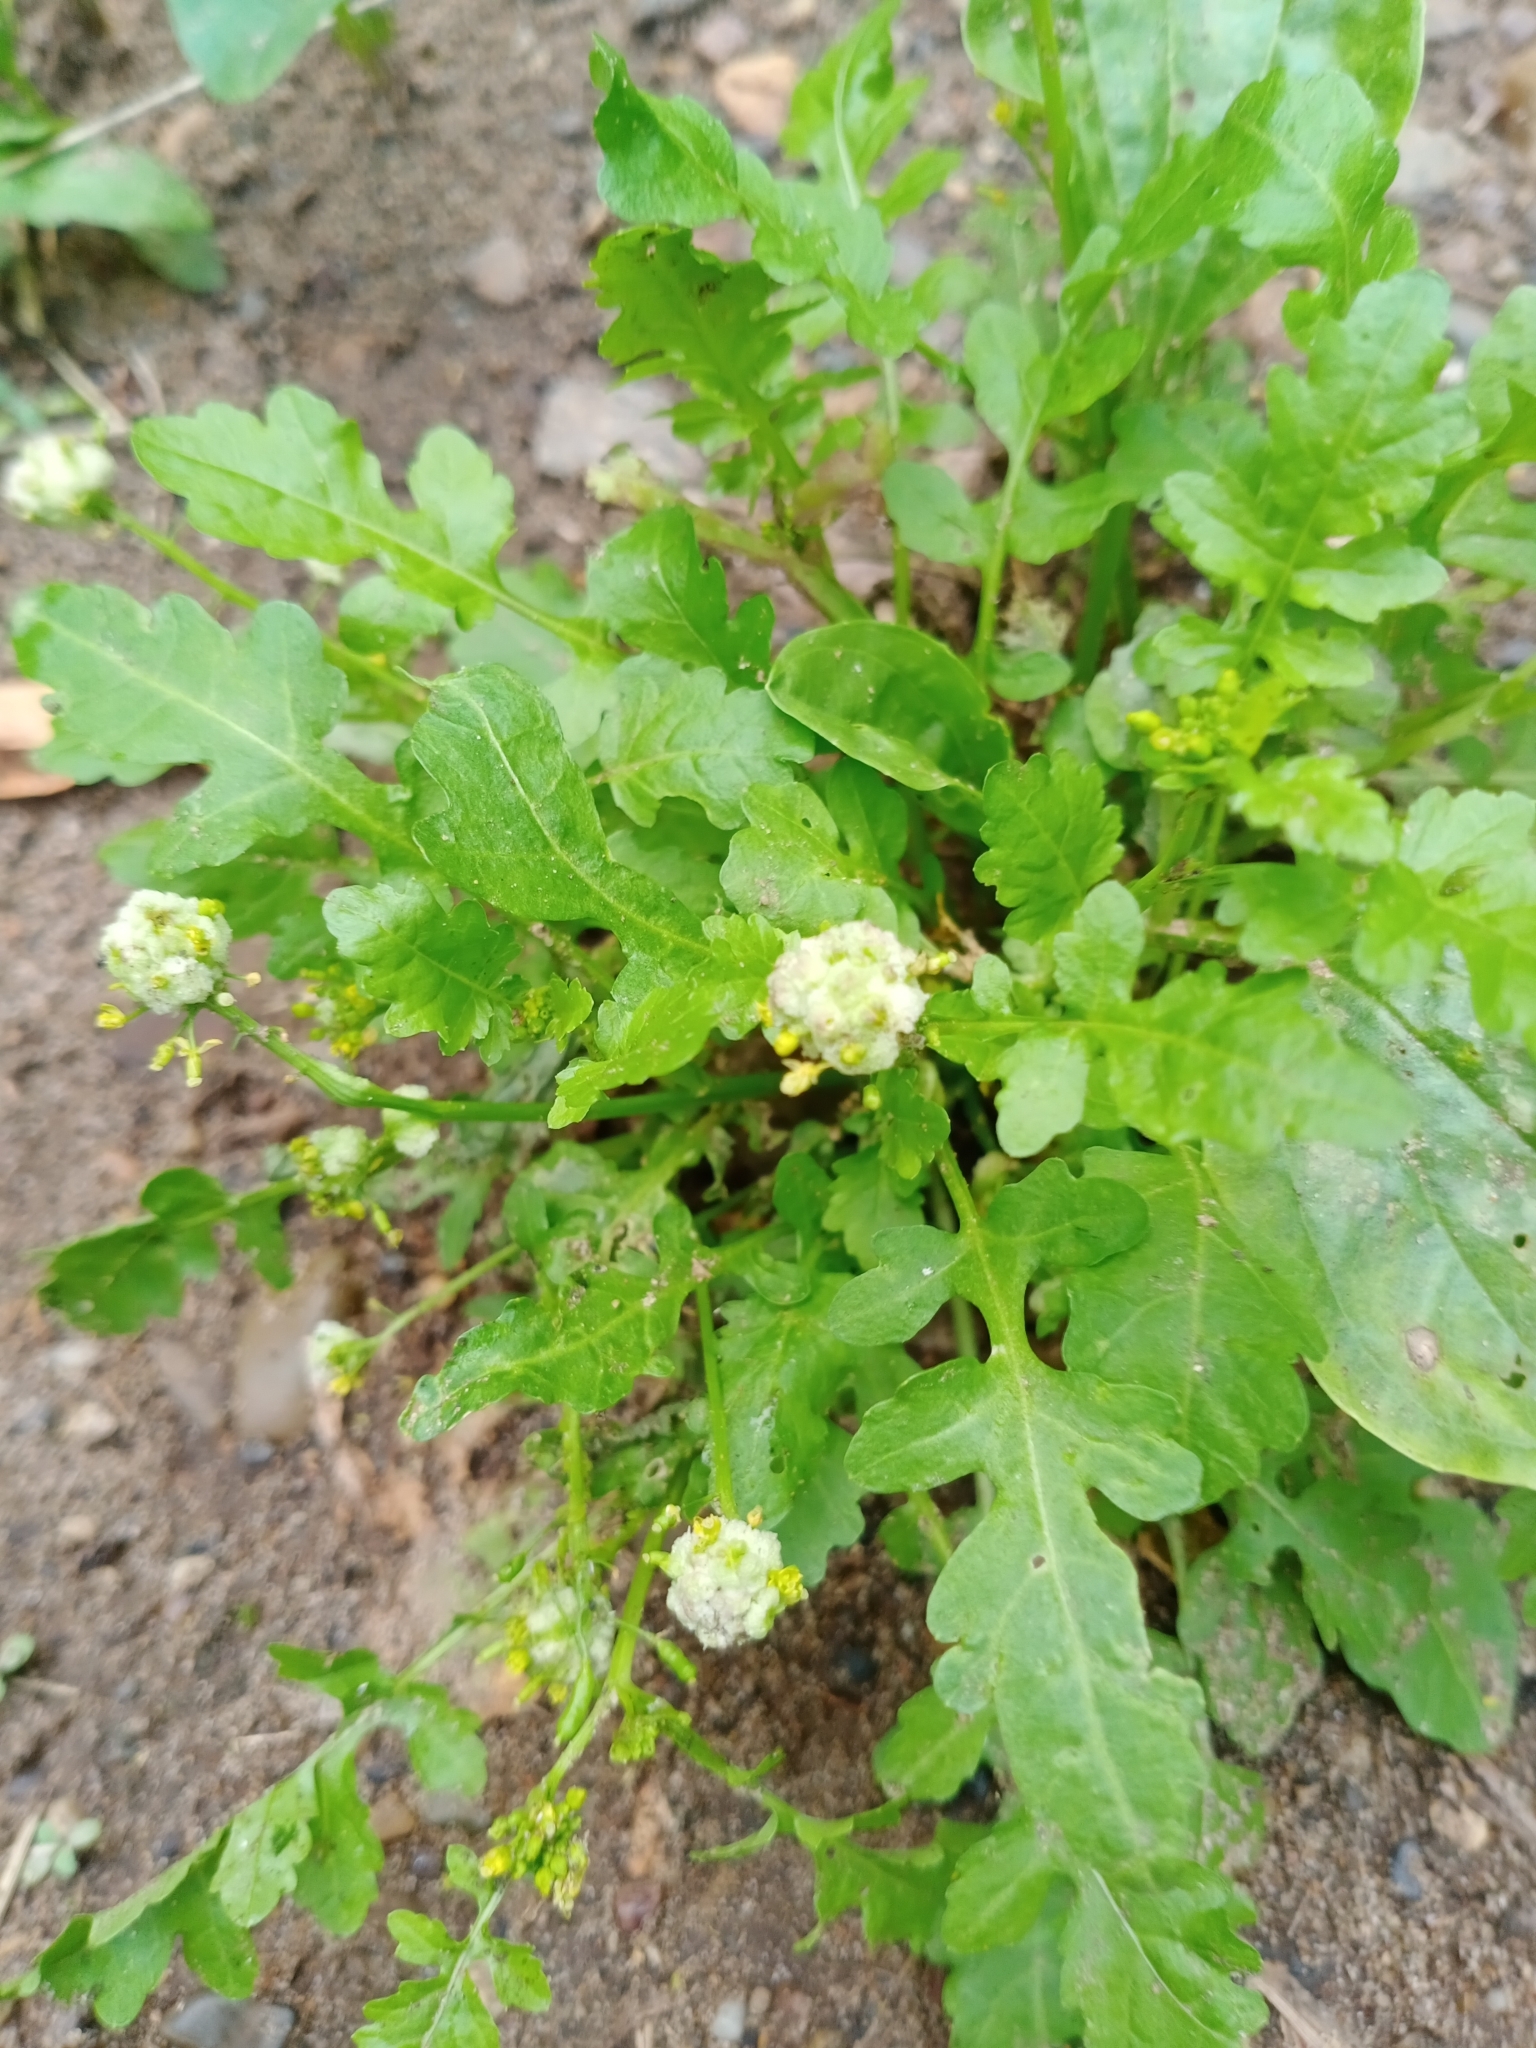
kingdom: Plantae
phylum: Tracheophyta
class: Magnoliopsida
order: Brassicales
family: Brassicaceae
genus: Rorippa
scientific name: Rorippa palustris
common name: Marsh yellow-cress
